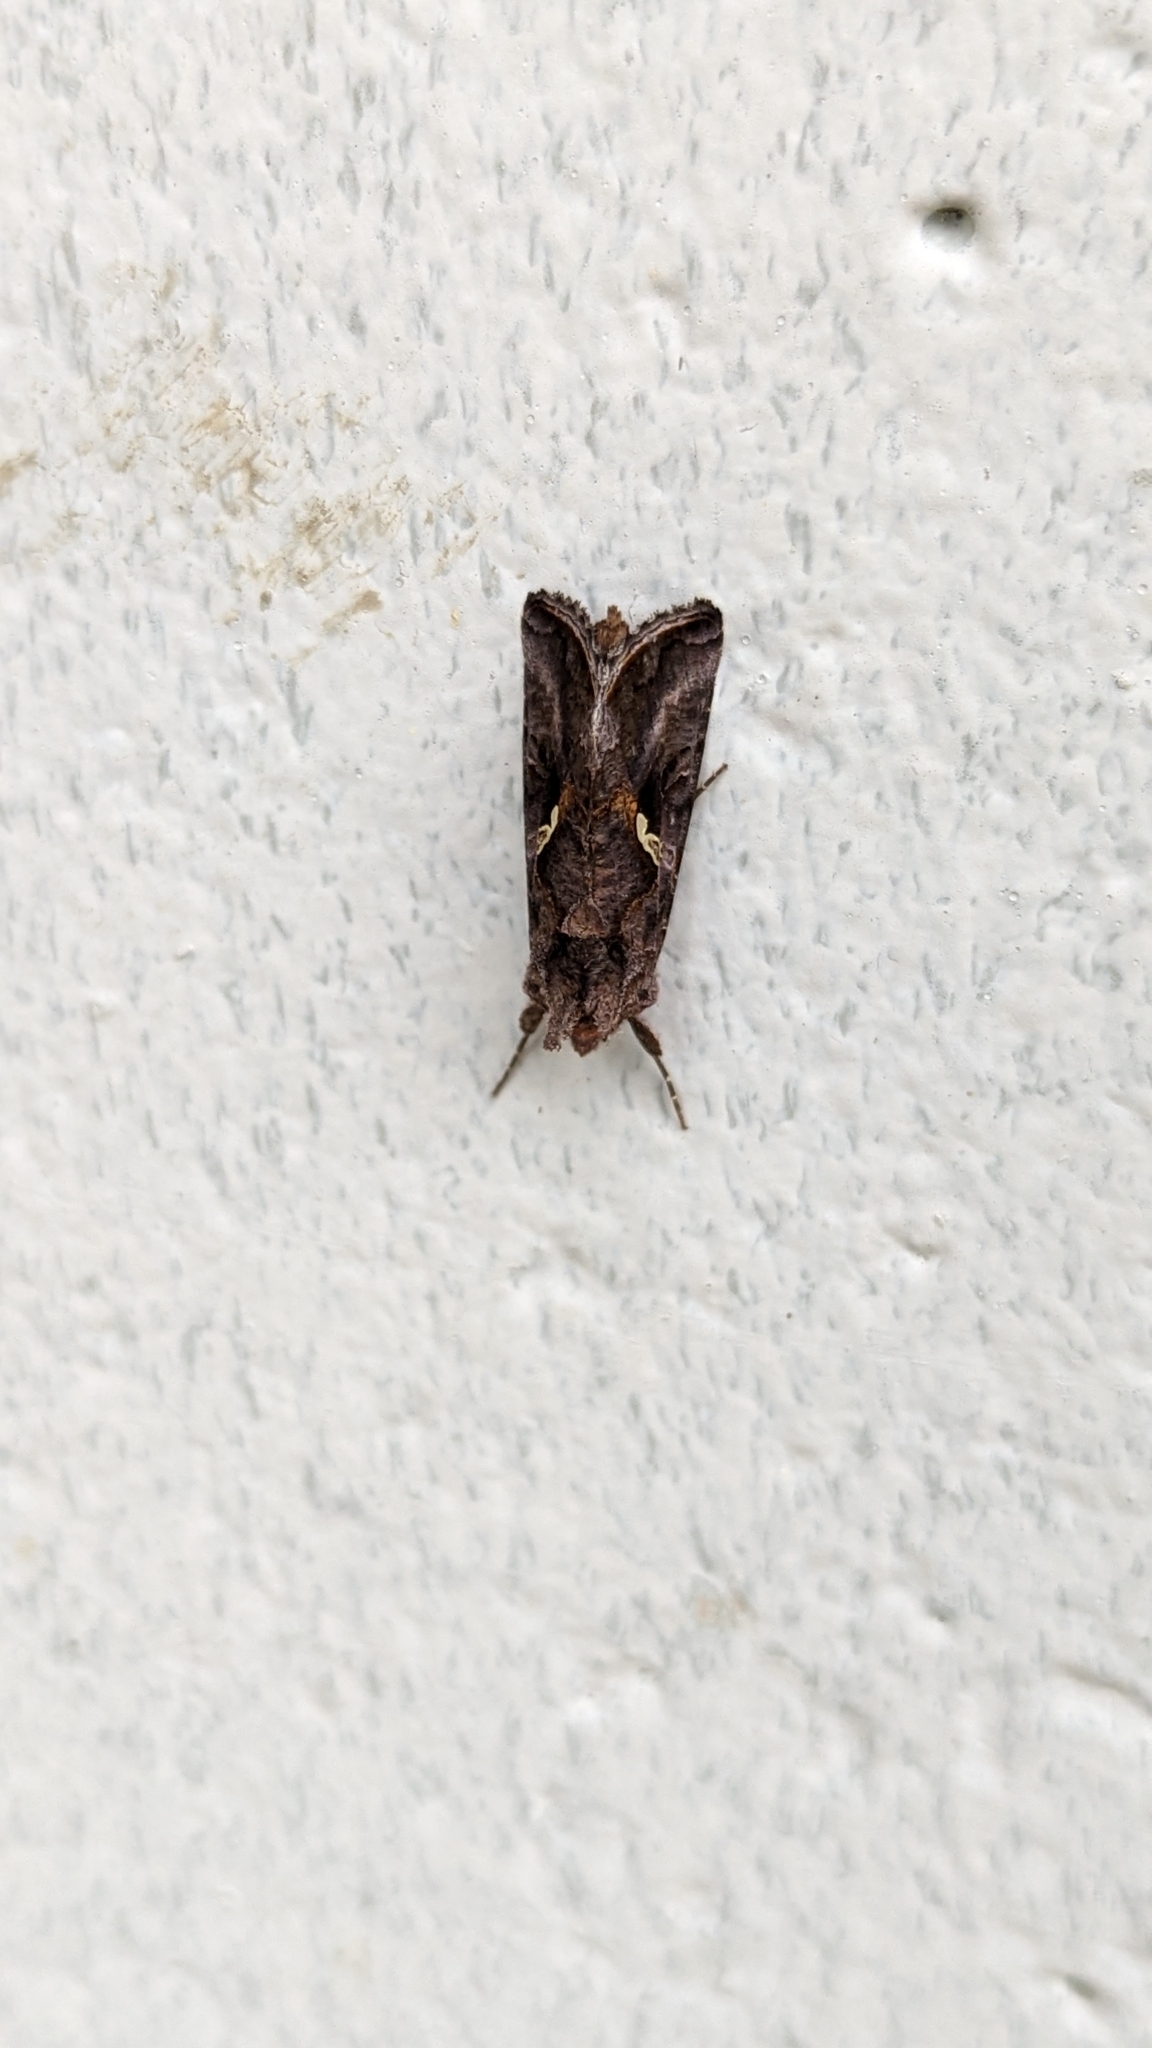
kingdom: Animalia
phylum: Arthropoda
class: Insecta
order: Lepidoptera
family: Noctuidae
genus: Autographa
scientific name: Autographa precationis
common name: Common looper moth
